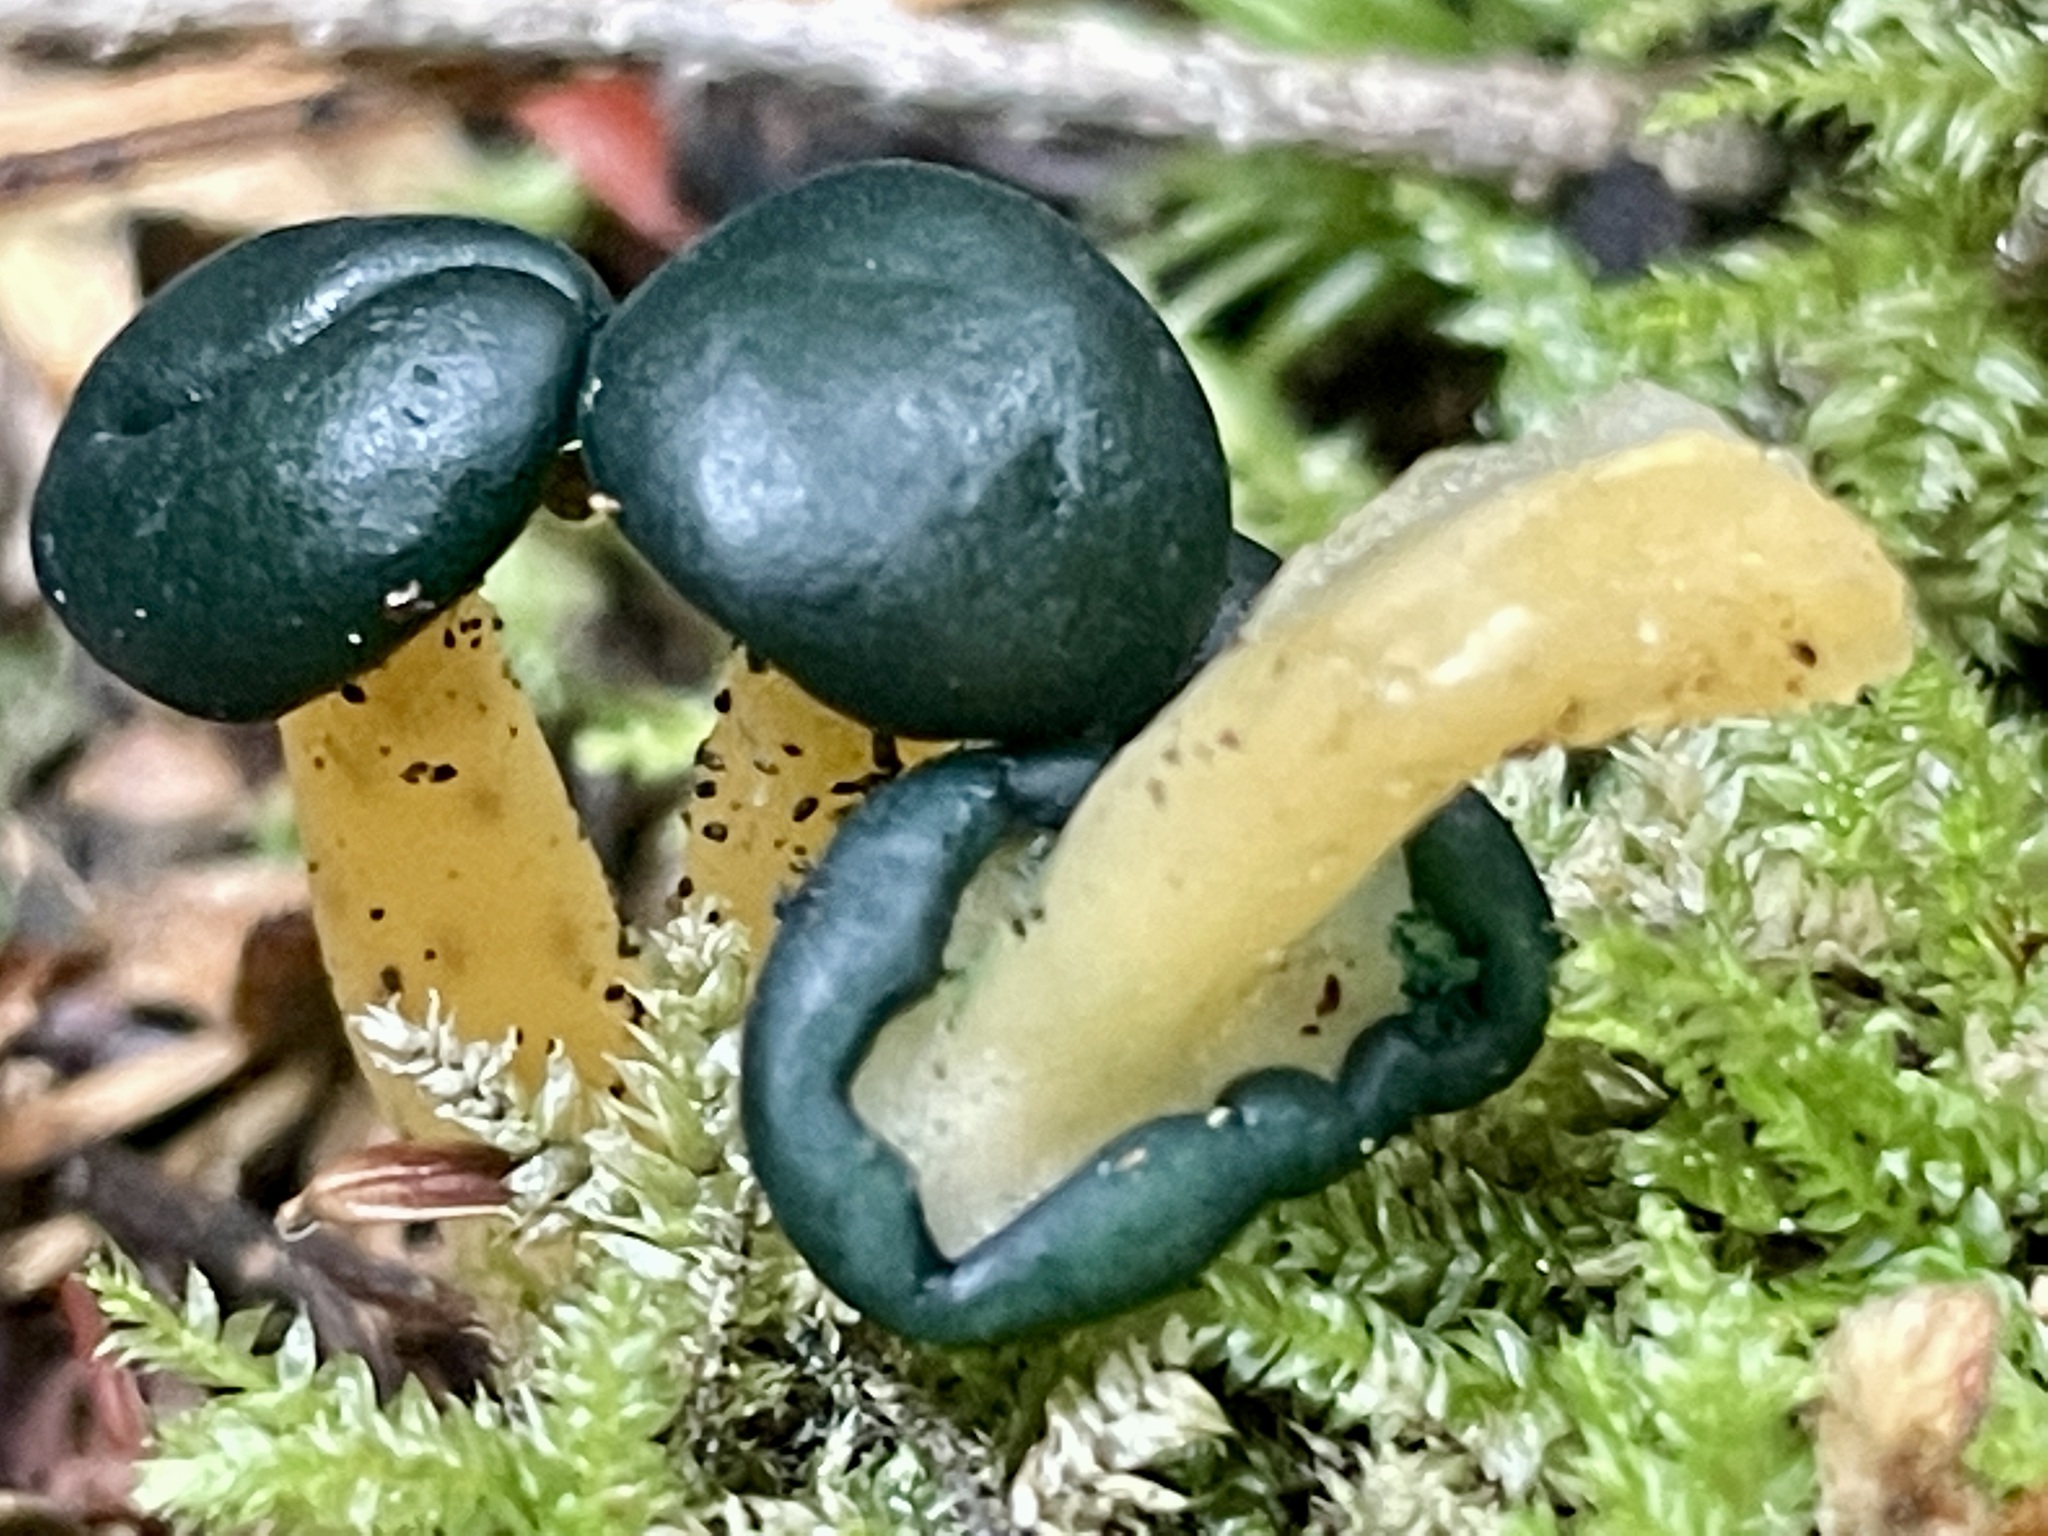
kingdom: Fungi
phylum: Ascomycota
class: Leotiomycetes
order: Leotiales
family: Leotiaceae
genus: Leotia
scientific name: Leotia lubrica
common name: Jellybaby
